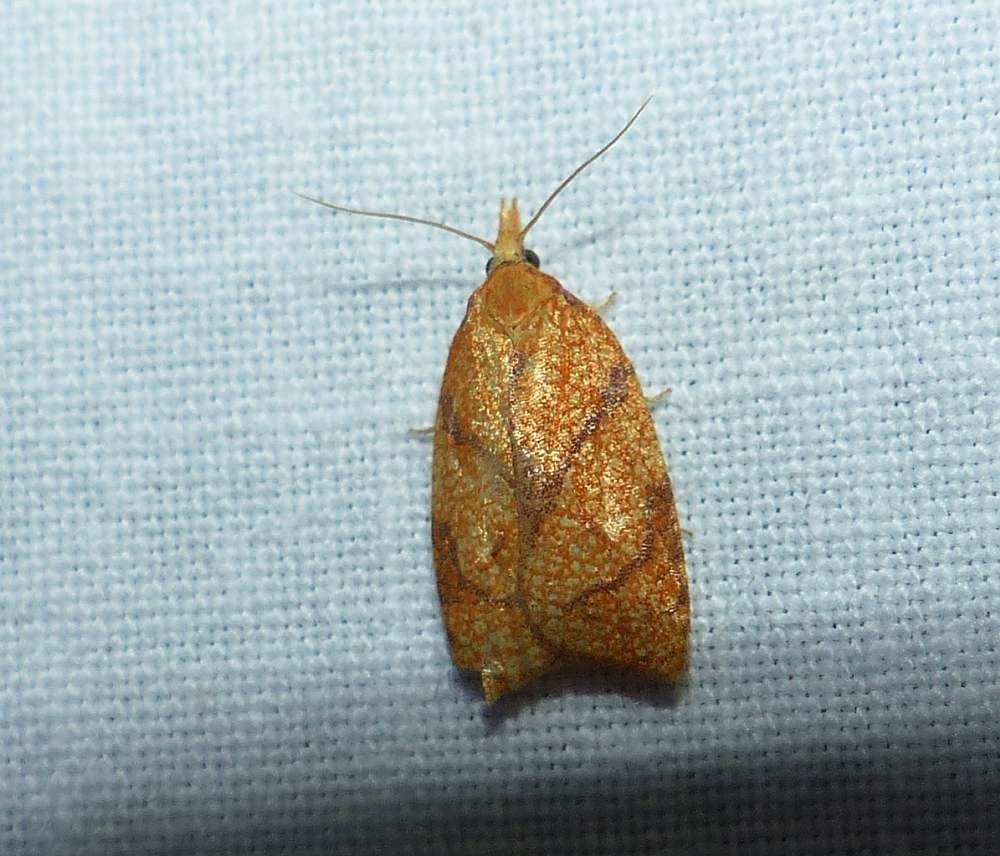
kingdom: Animalia
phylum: Arthropoda
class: Insecta
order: Lepidoptera
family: Tortricidae
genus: Cenopis
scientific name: Cenopis reticulatana
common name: Reticulated fruitworm moth
